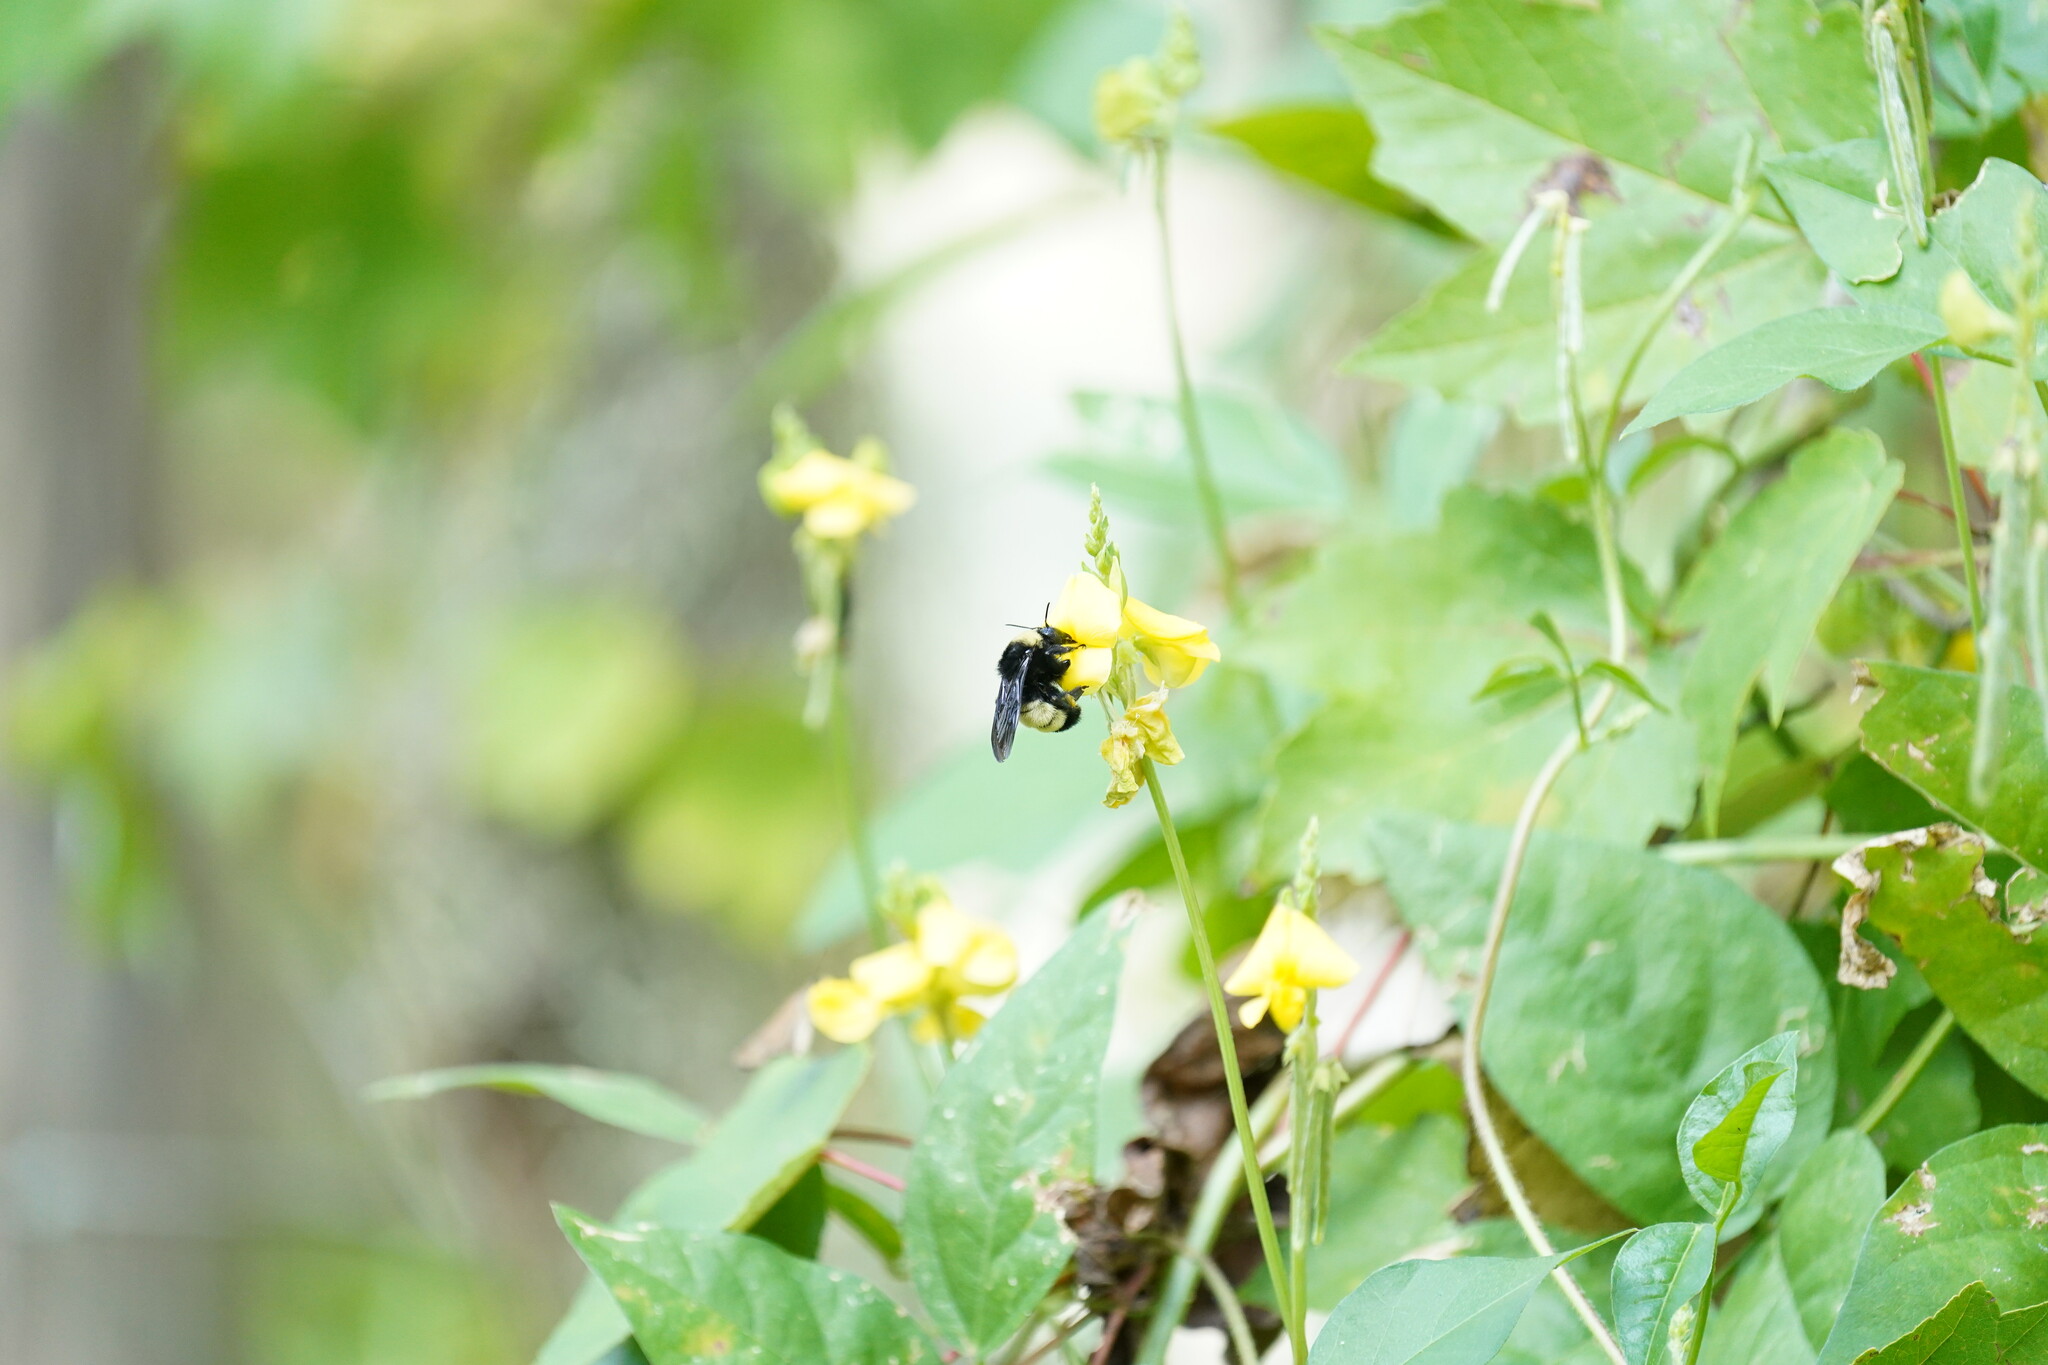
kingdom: Animalia
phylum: Arthropoda
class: Insecta
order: Hymenoptera
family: Apidae
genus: Bombus
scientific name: Bombus pensylvanicus
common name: Bumble bee
